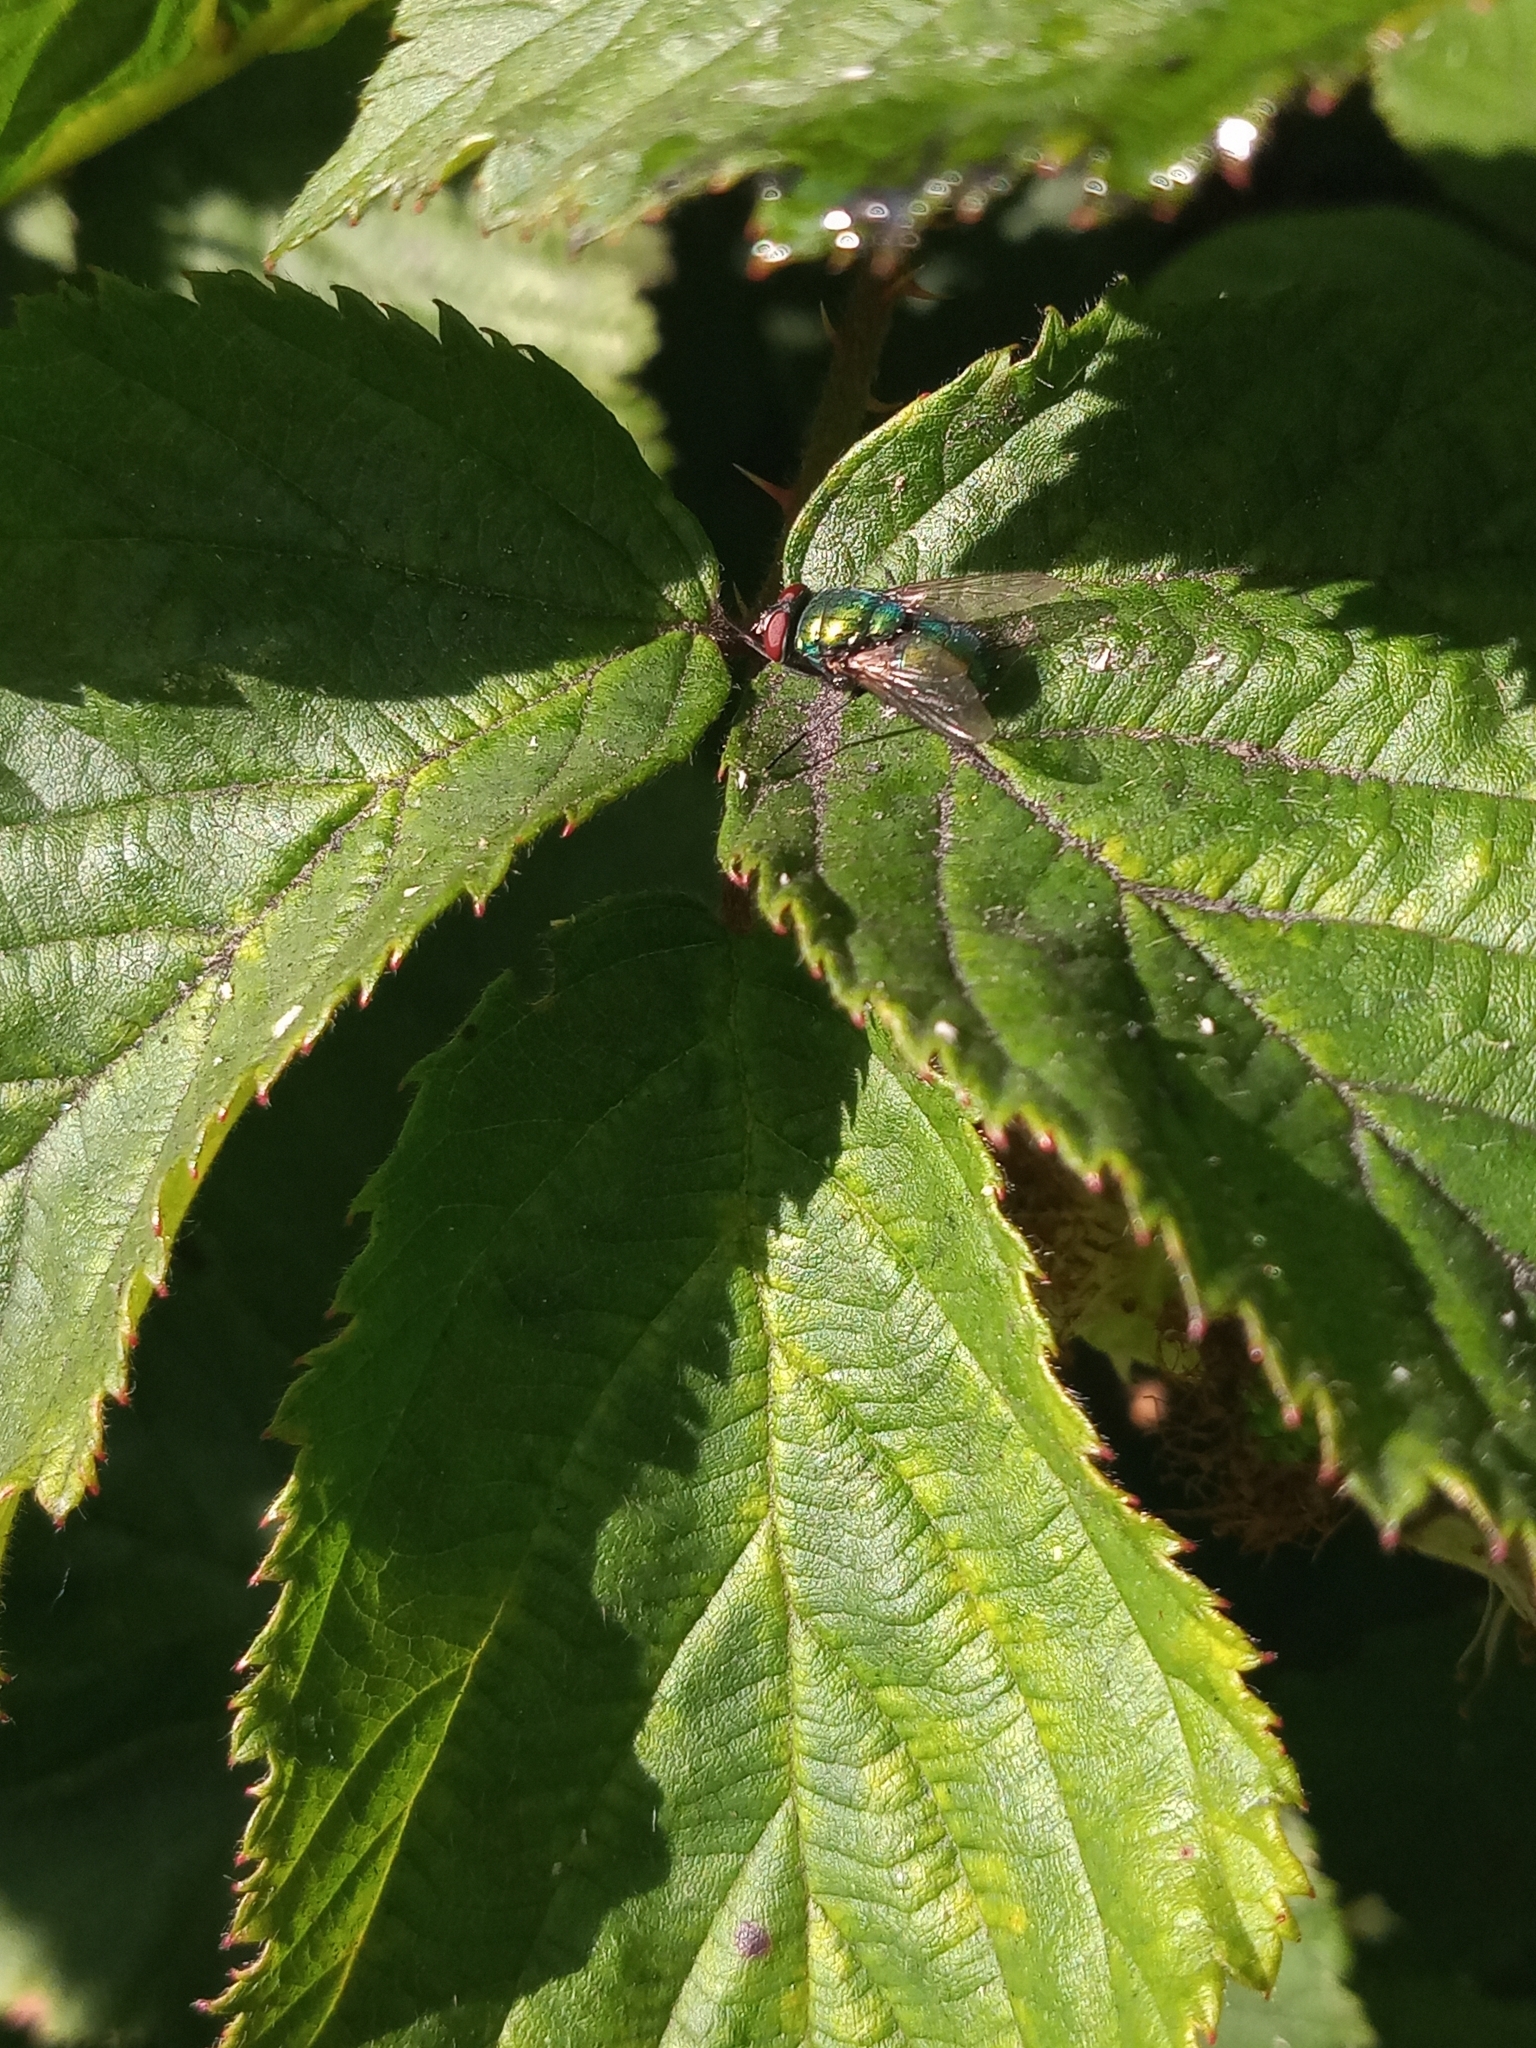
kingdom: Animalia
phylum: Arthropoda
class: Insecta
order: Diptera
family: Calliphoridae
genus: Lucilia
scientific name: Lucilia
